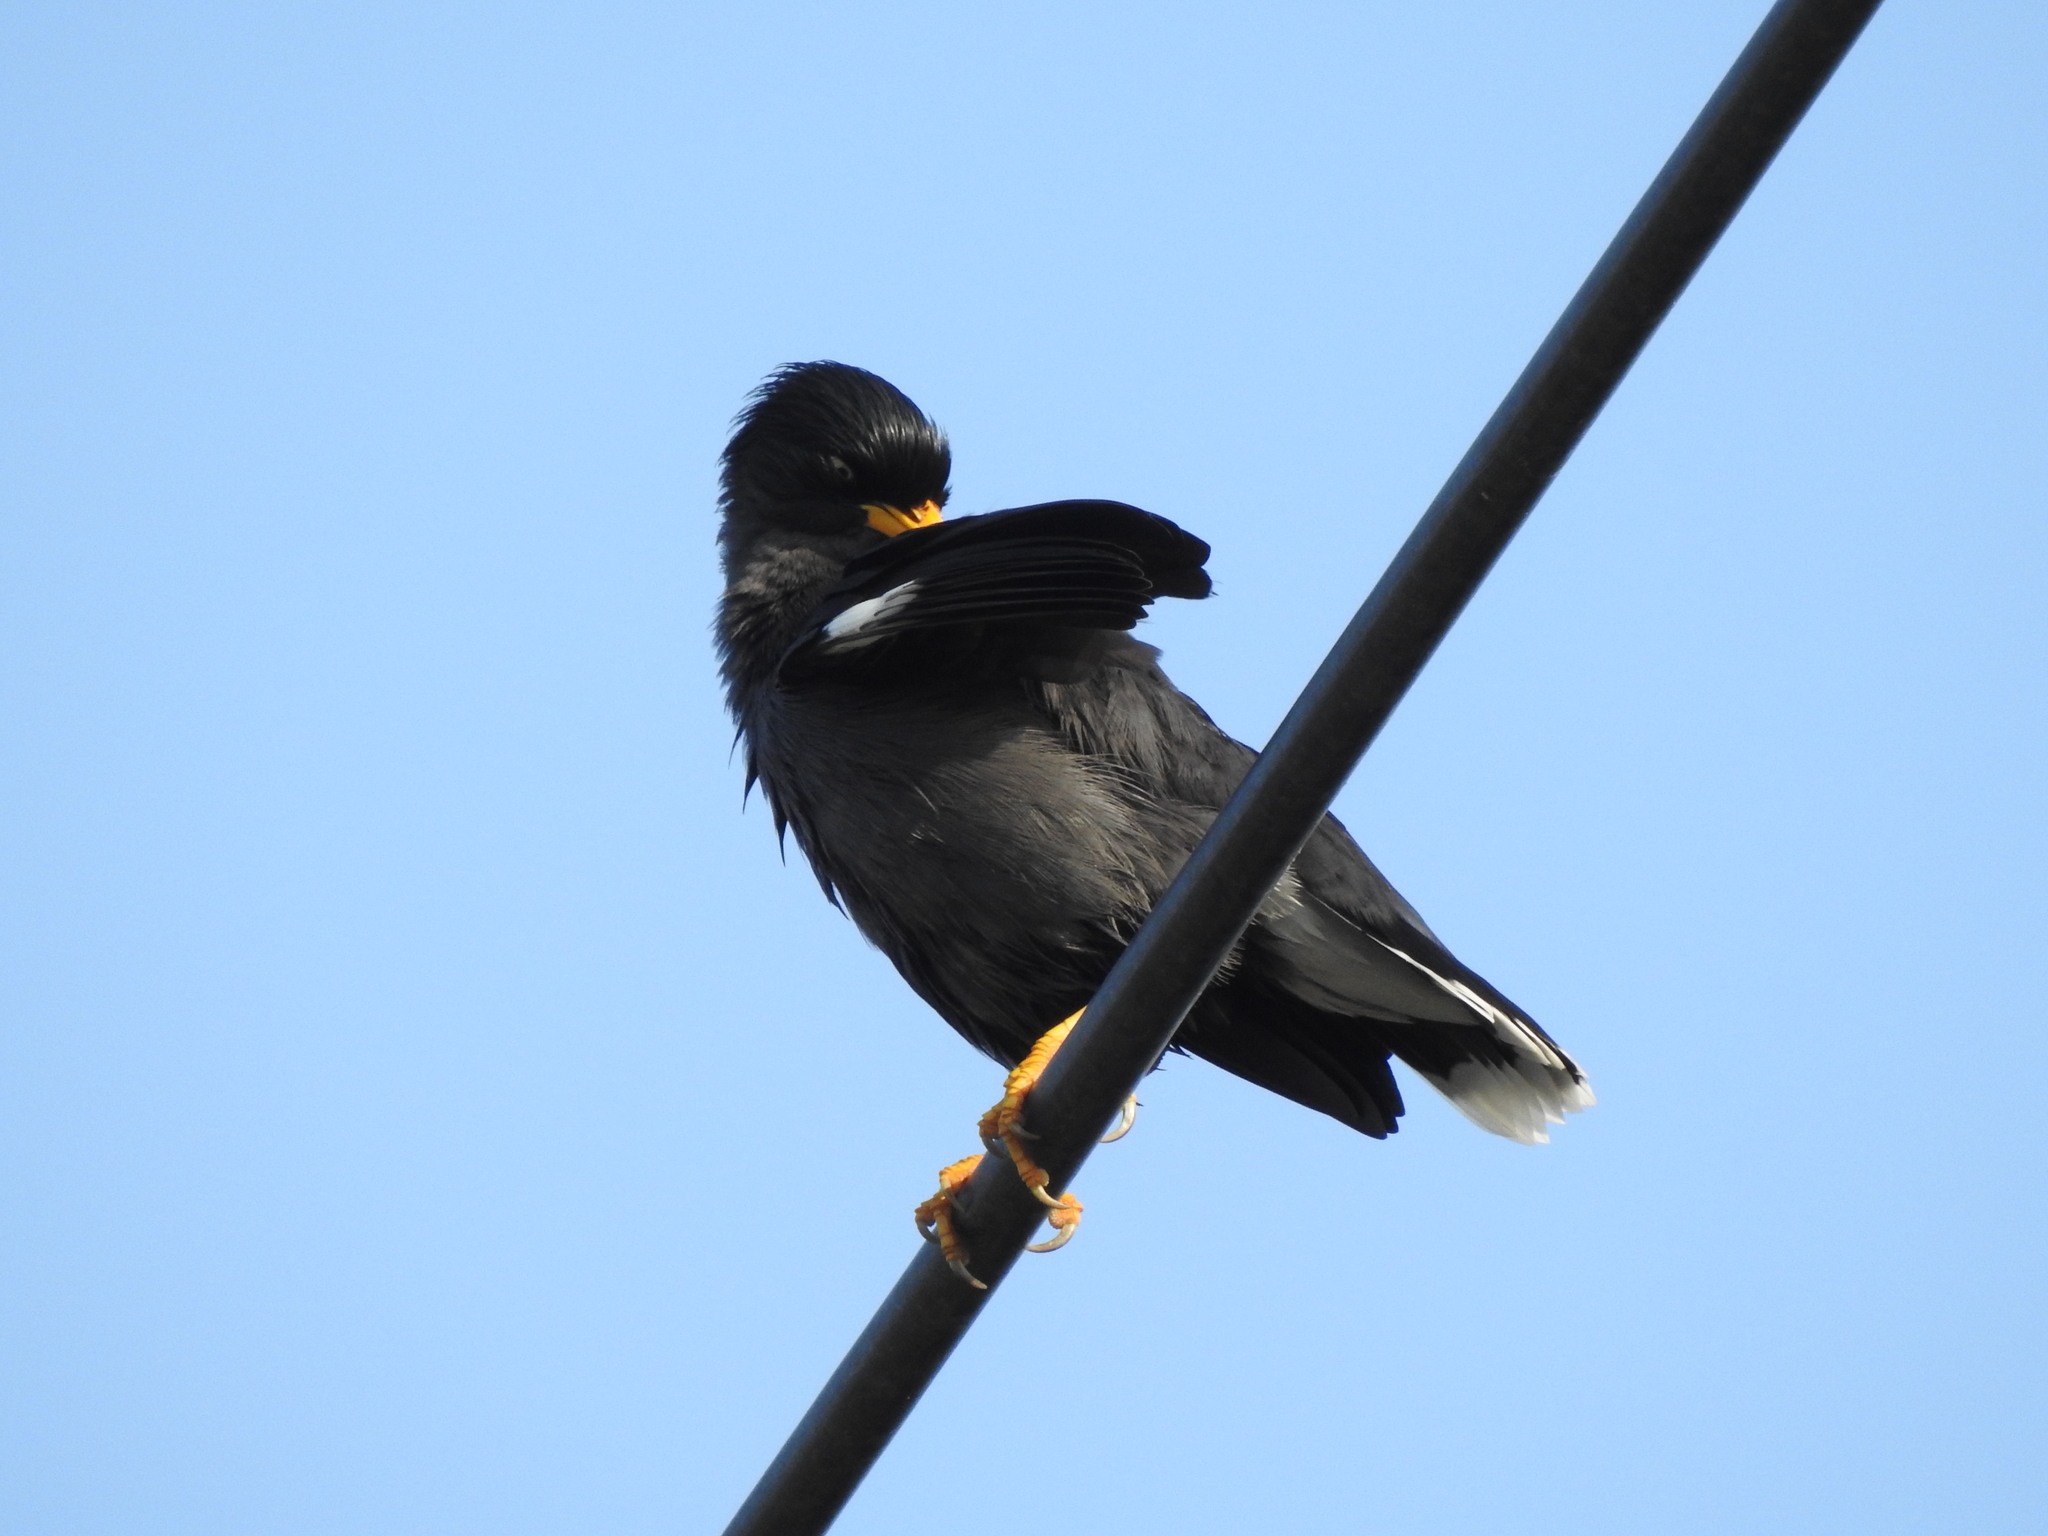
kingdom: Animalia
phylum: Chordata
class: Aves
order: Passeriformes
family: Sturnidae
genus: Acridotheres
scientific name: Acridotheres javanicus
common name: Javan myna
